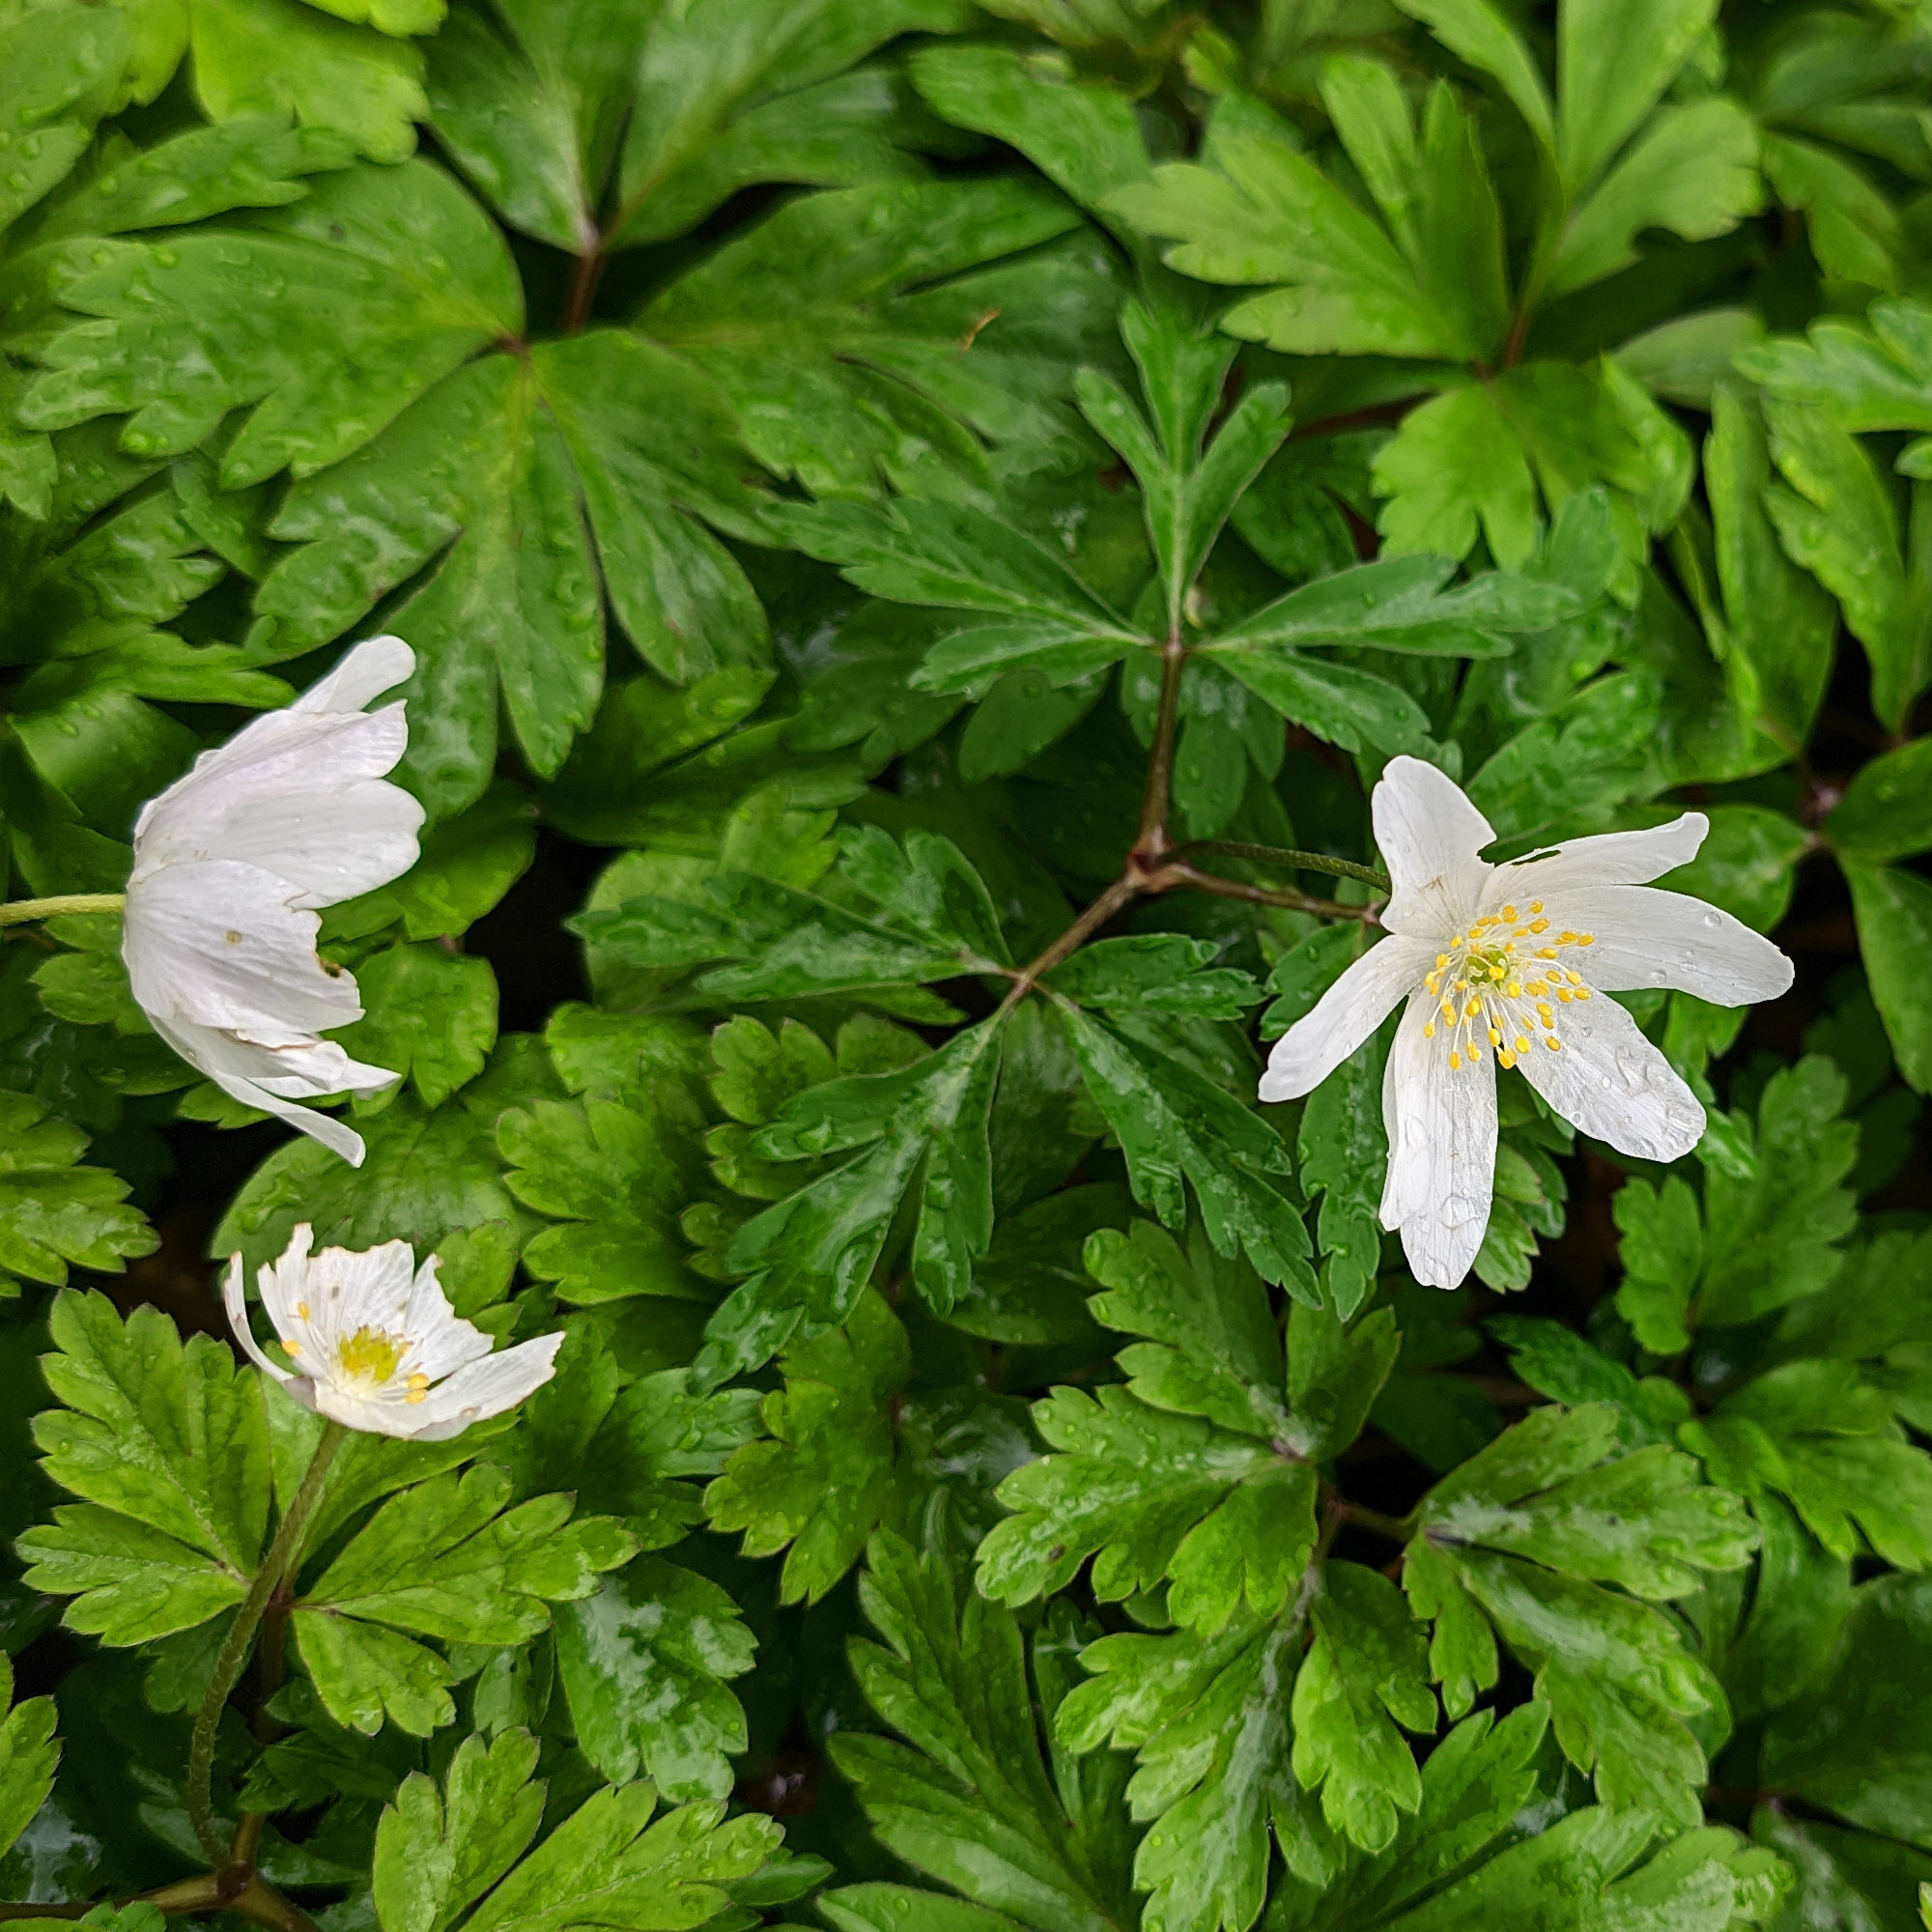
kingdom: Plantae
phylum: Tracheophyta
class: Magnoliopsida
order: Ranunculales
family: Ranunculaceae
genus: Anemone
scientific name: Anemone nemorosa
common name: Wood anemone
